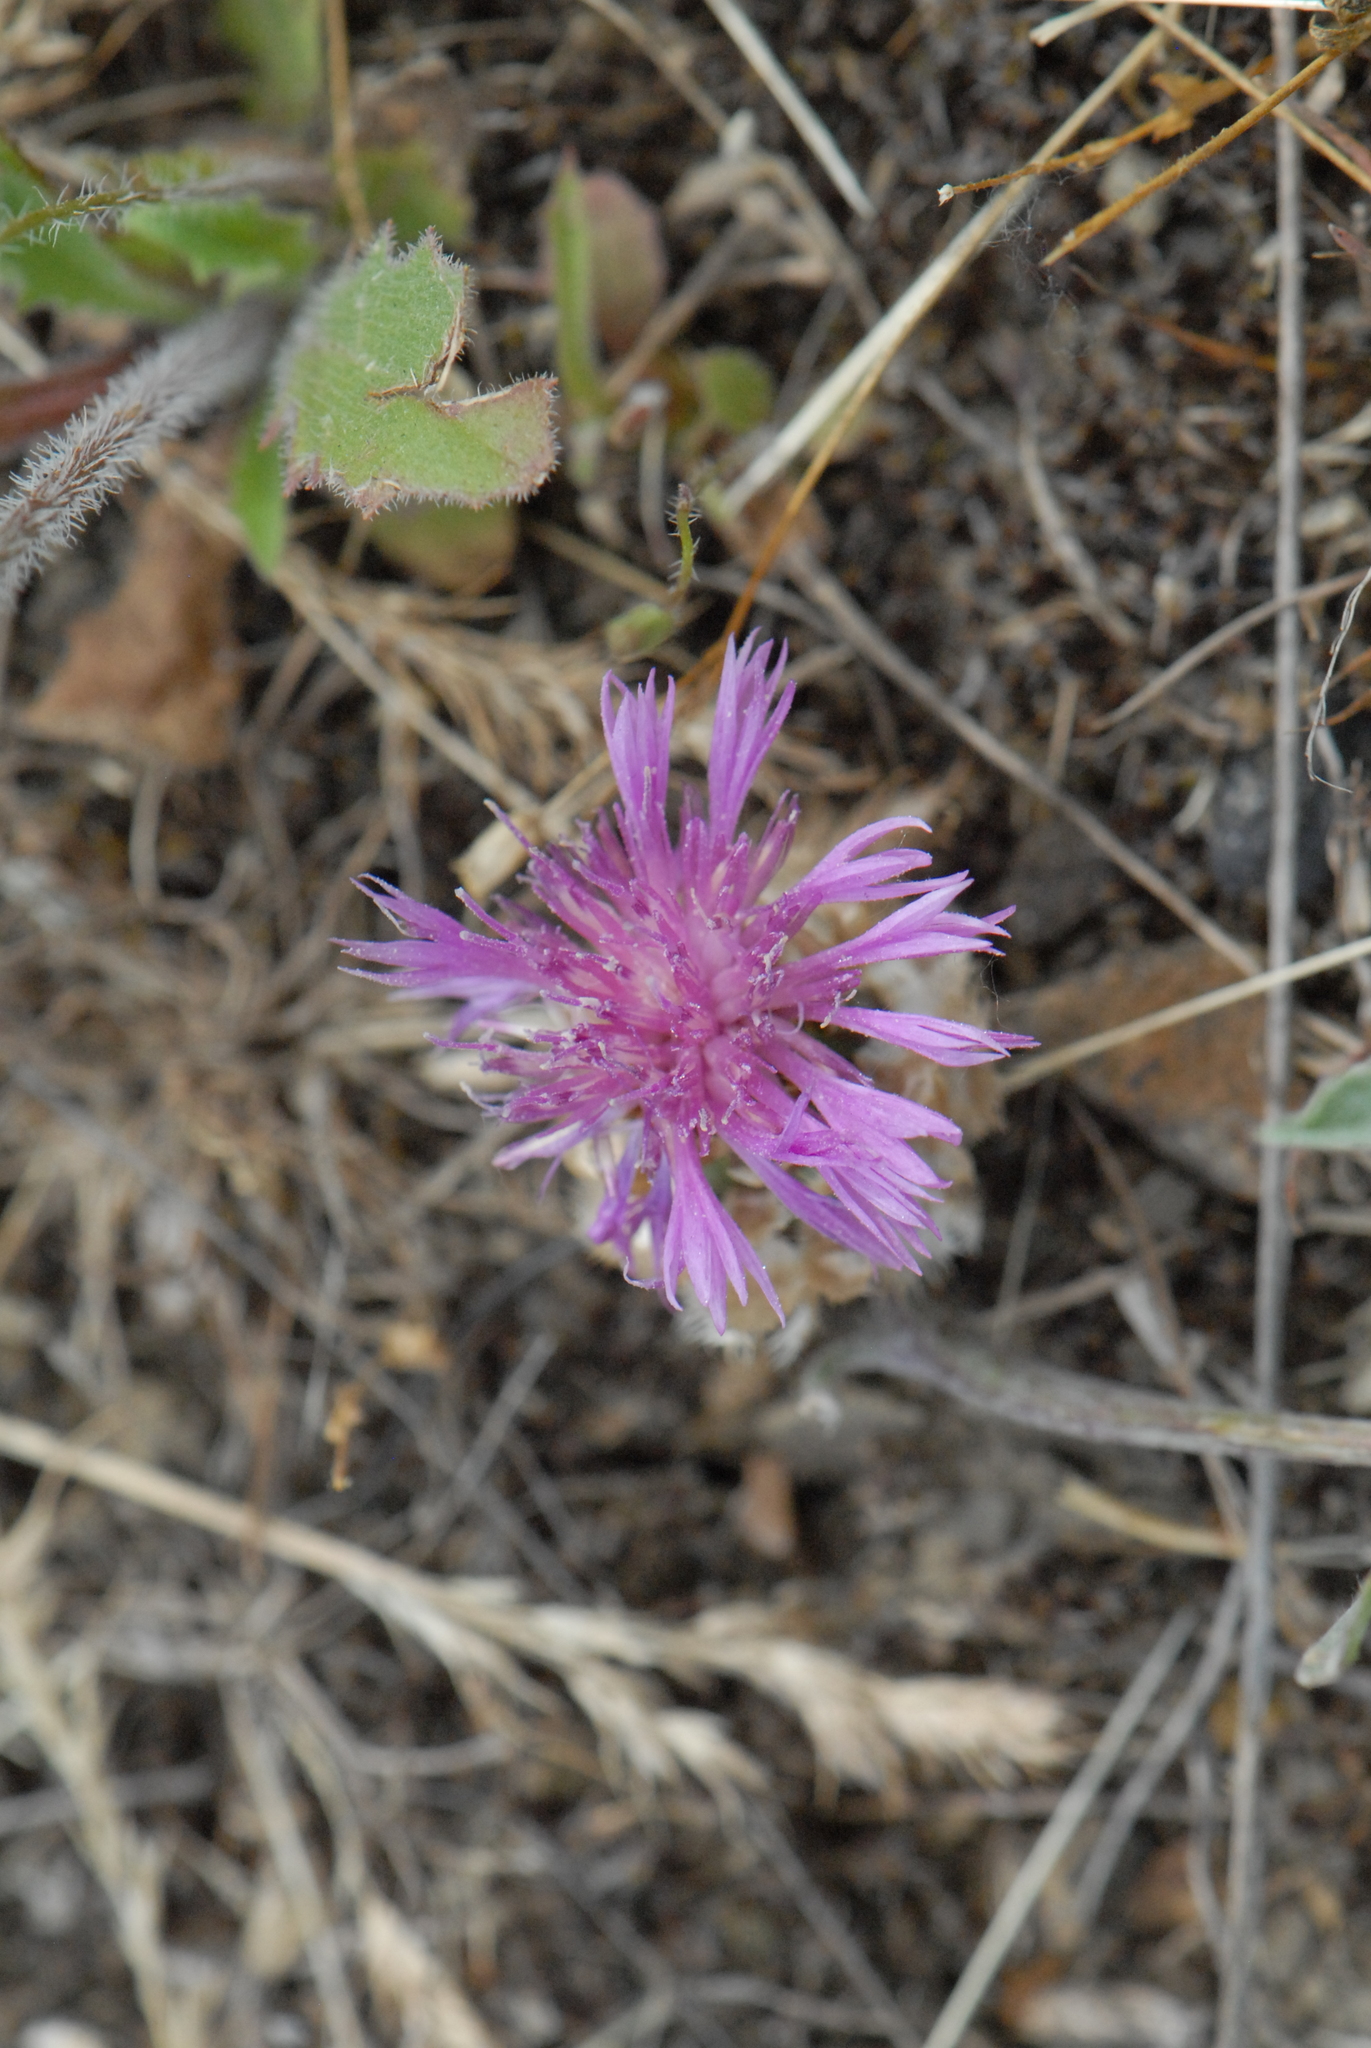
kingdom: Plantae
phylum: Tracheophyta
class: Magnoliopsida
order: Asterales
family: Asteraceae
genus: Psephellus
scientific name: Psephellus marschallianus
